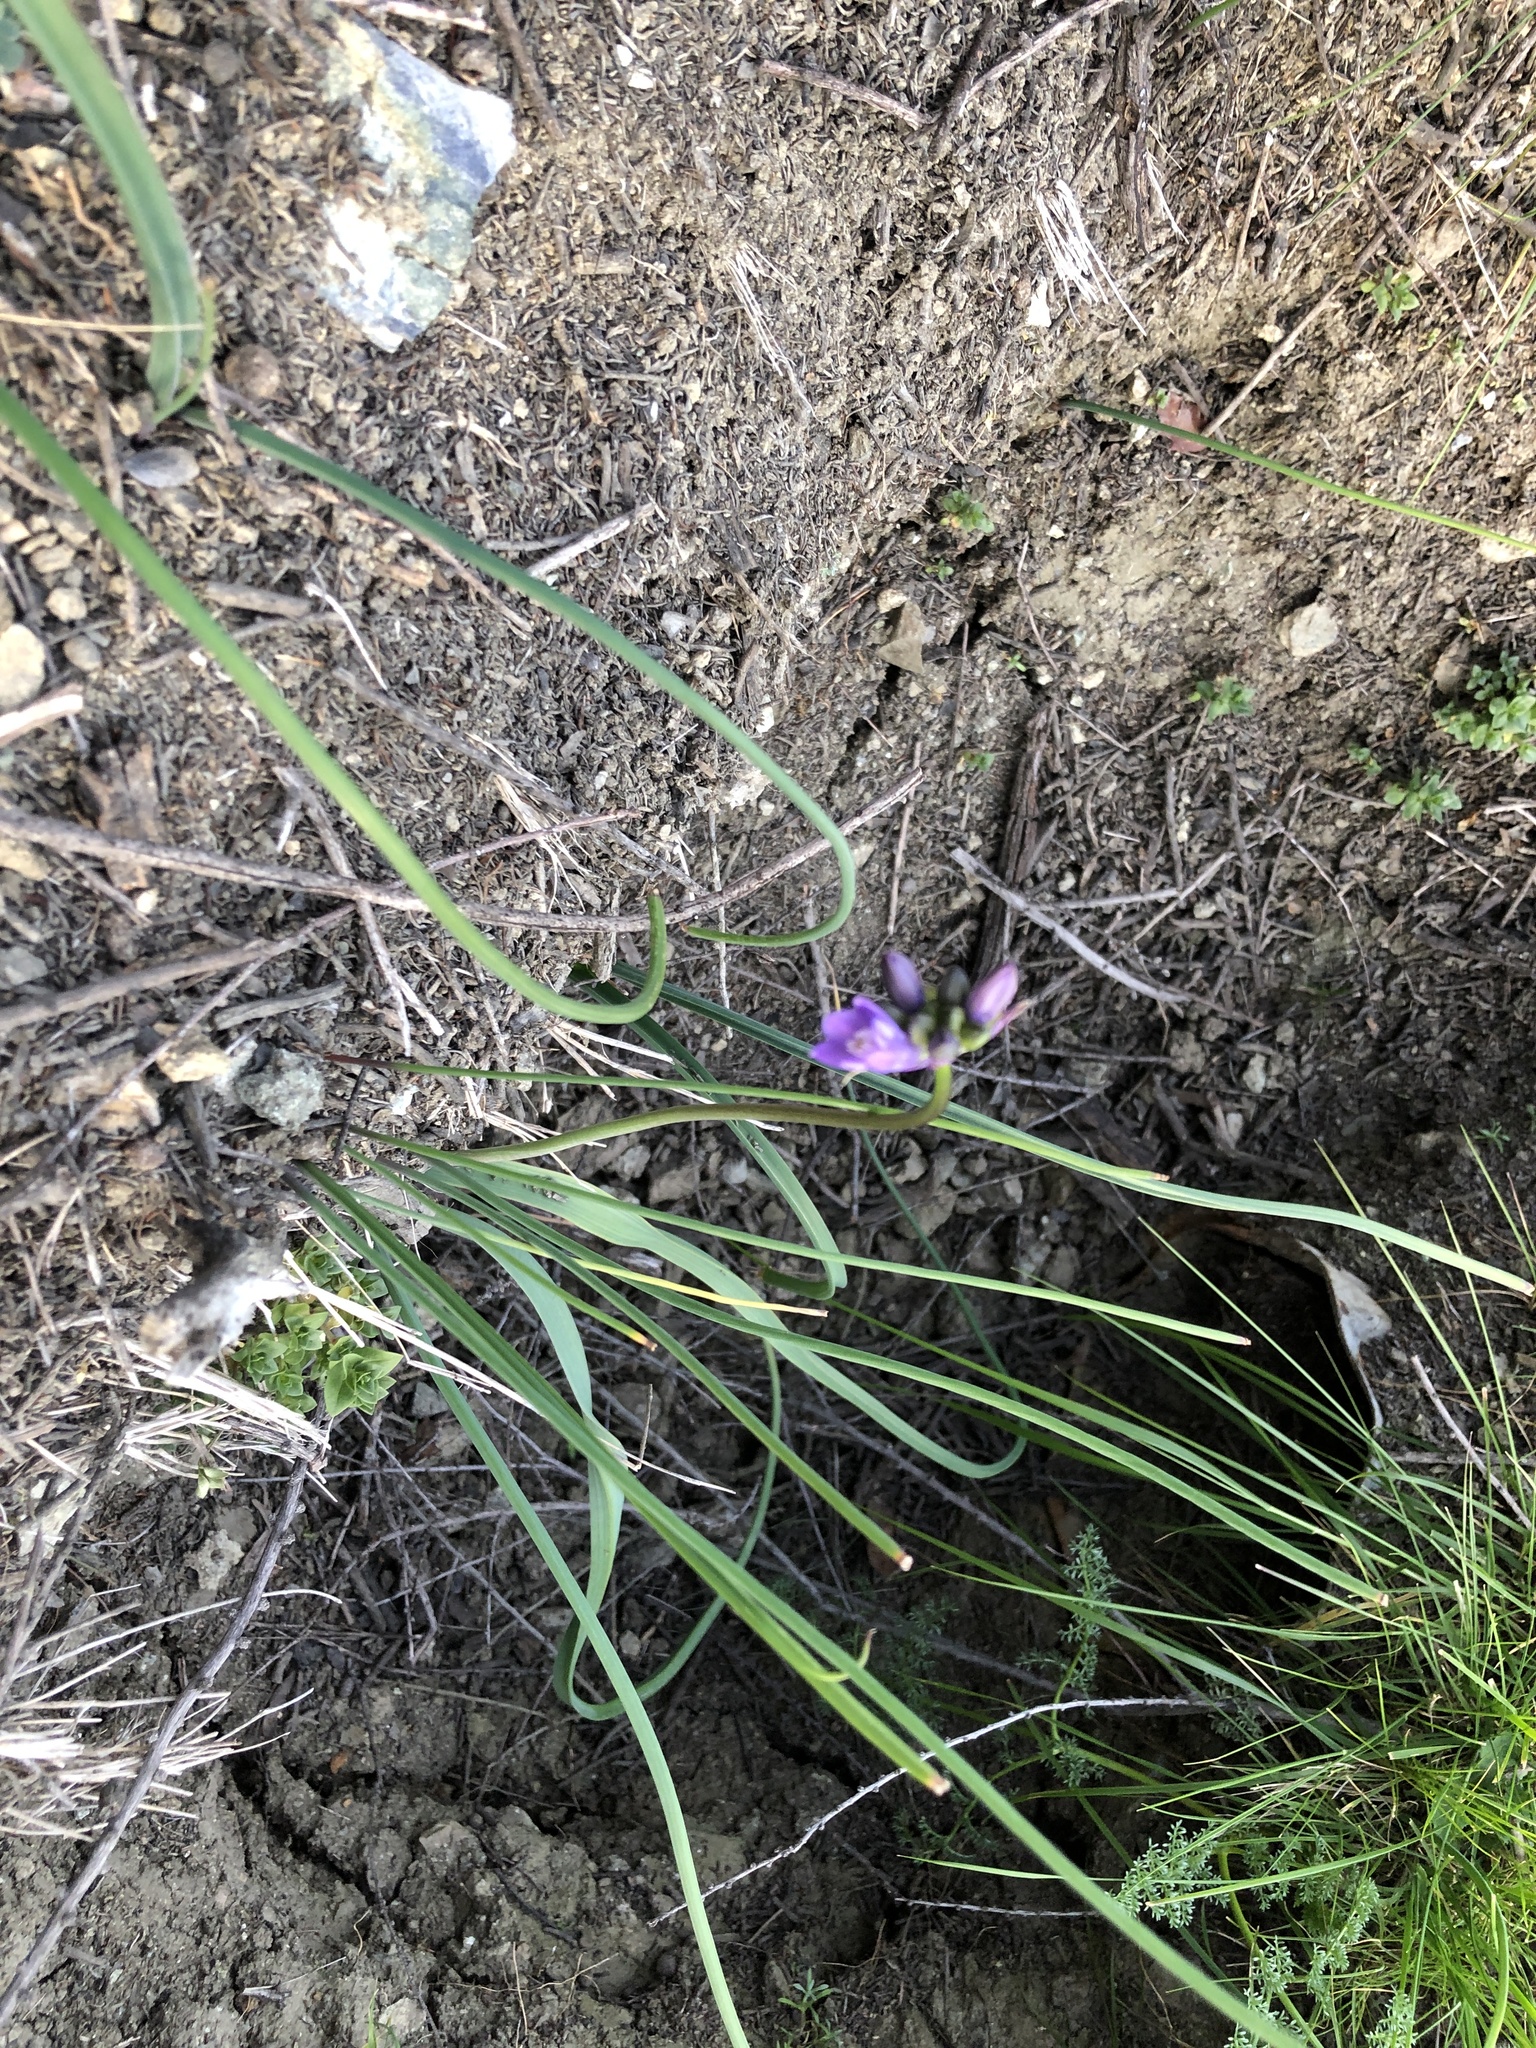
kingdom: Plantae
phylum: Tracheophyta
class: Liliopsida
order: Asparagales
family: Asparagaceae
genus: Dipterostemon
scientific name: Dipterostemon capitatus
